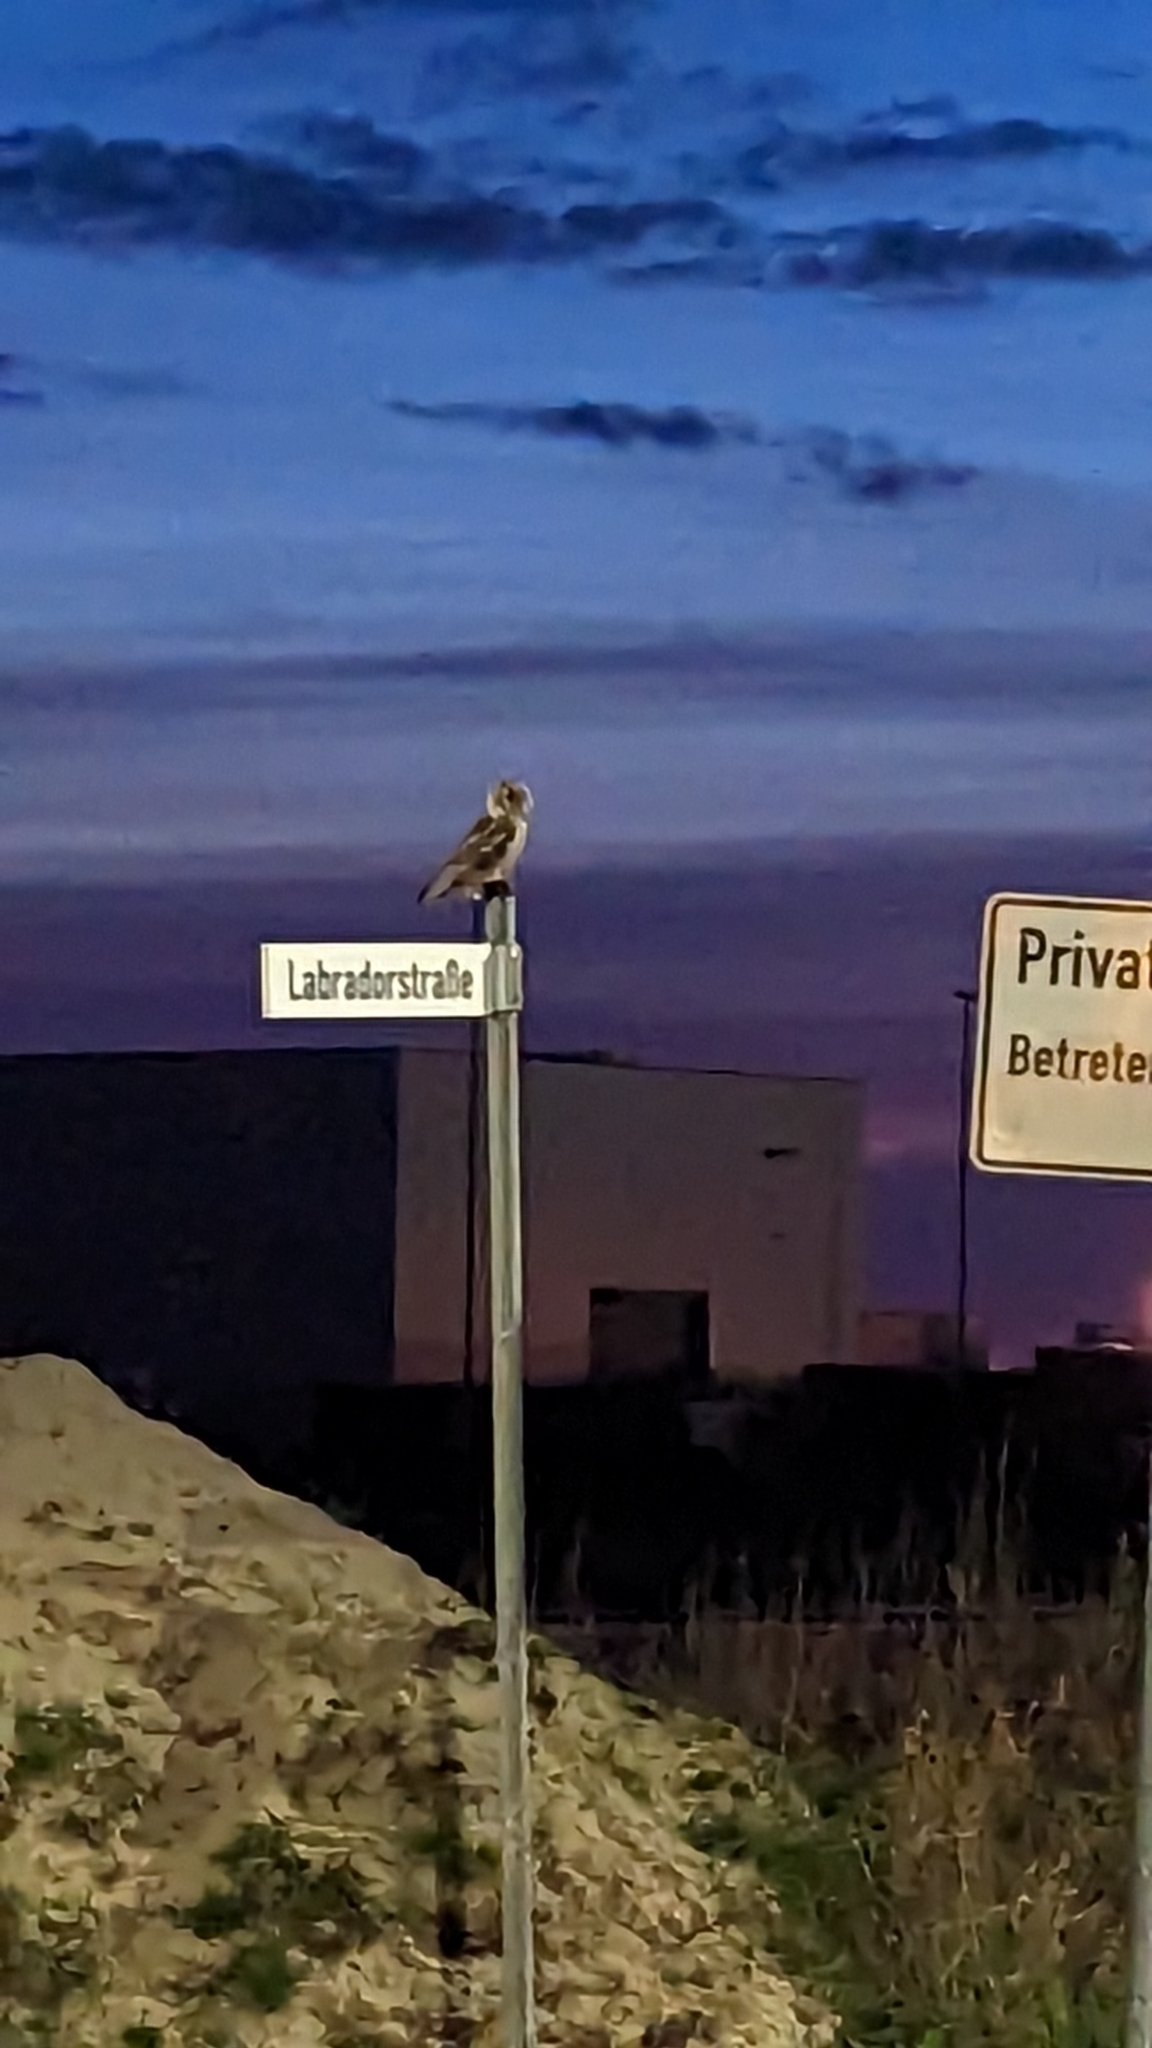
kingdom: Animalia
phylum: Chordata
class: Aves
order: Strigiformes
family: Strigidae
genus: Asio
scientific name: Asio otus
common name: Long-eared owl
